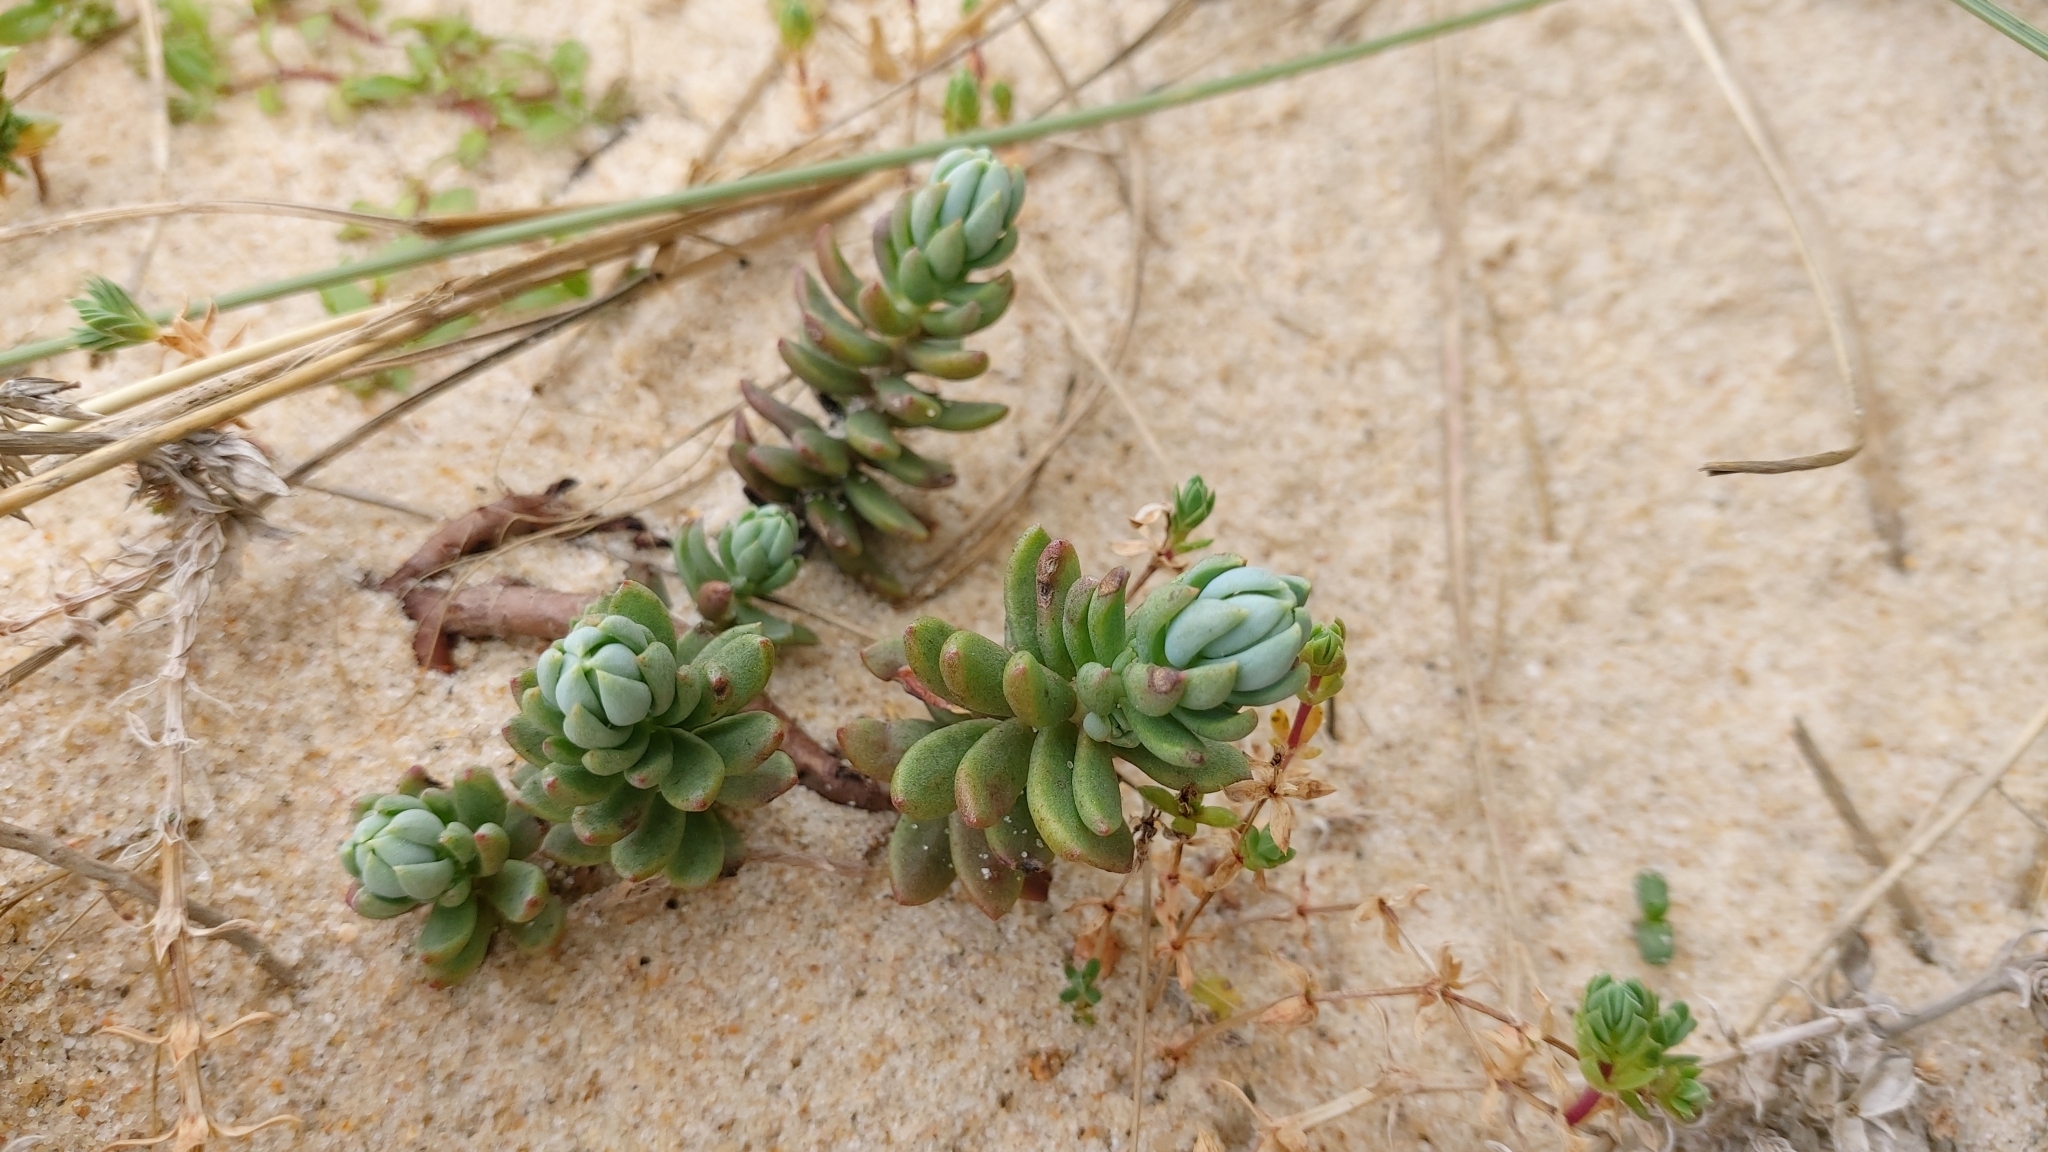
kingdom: Plantae
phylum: Tracheophyta
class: Magnoliopsida
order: Saxifragales
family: Crassulaceae
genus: Petrosedum
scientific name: Petrosedum sediforme
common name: Pale stonecrop
